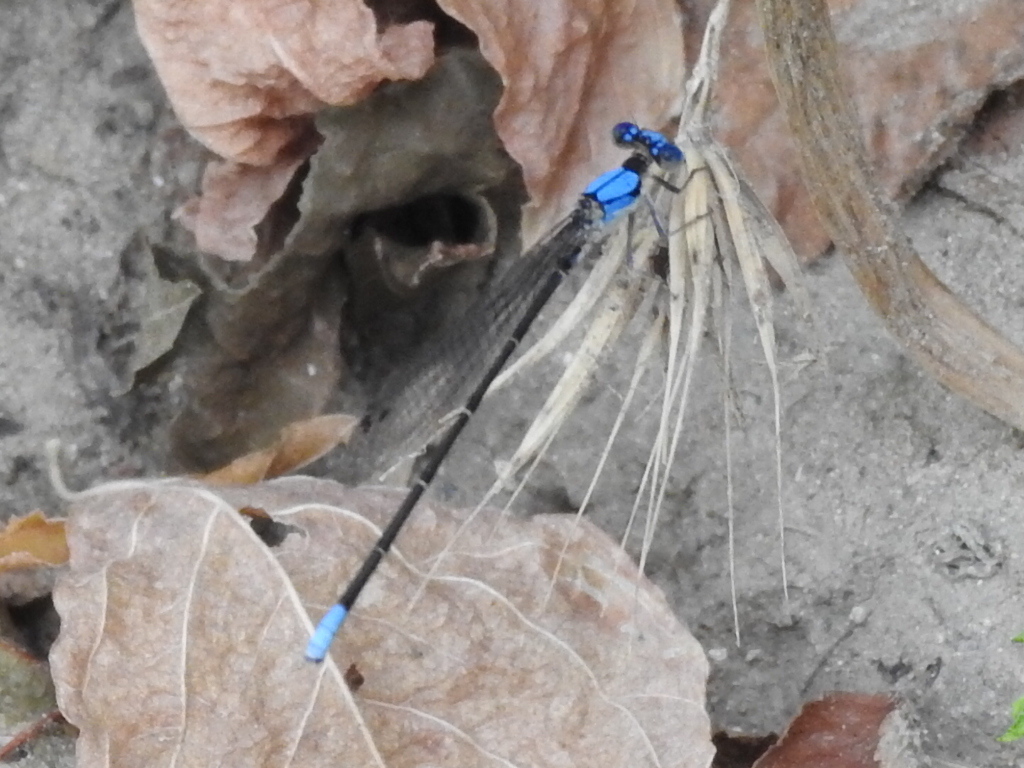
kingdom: Animalia
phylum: Arthropoda
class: Insecta
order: Odonata
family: Coenagrionidae
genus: Argia
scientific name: Argia apicalis
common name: Blue-fronted dancer
